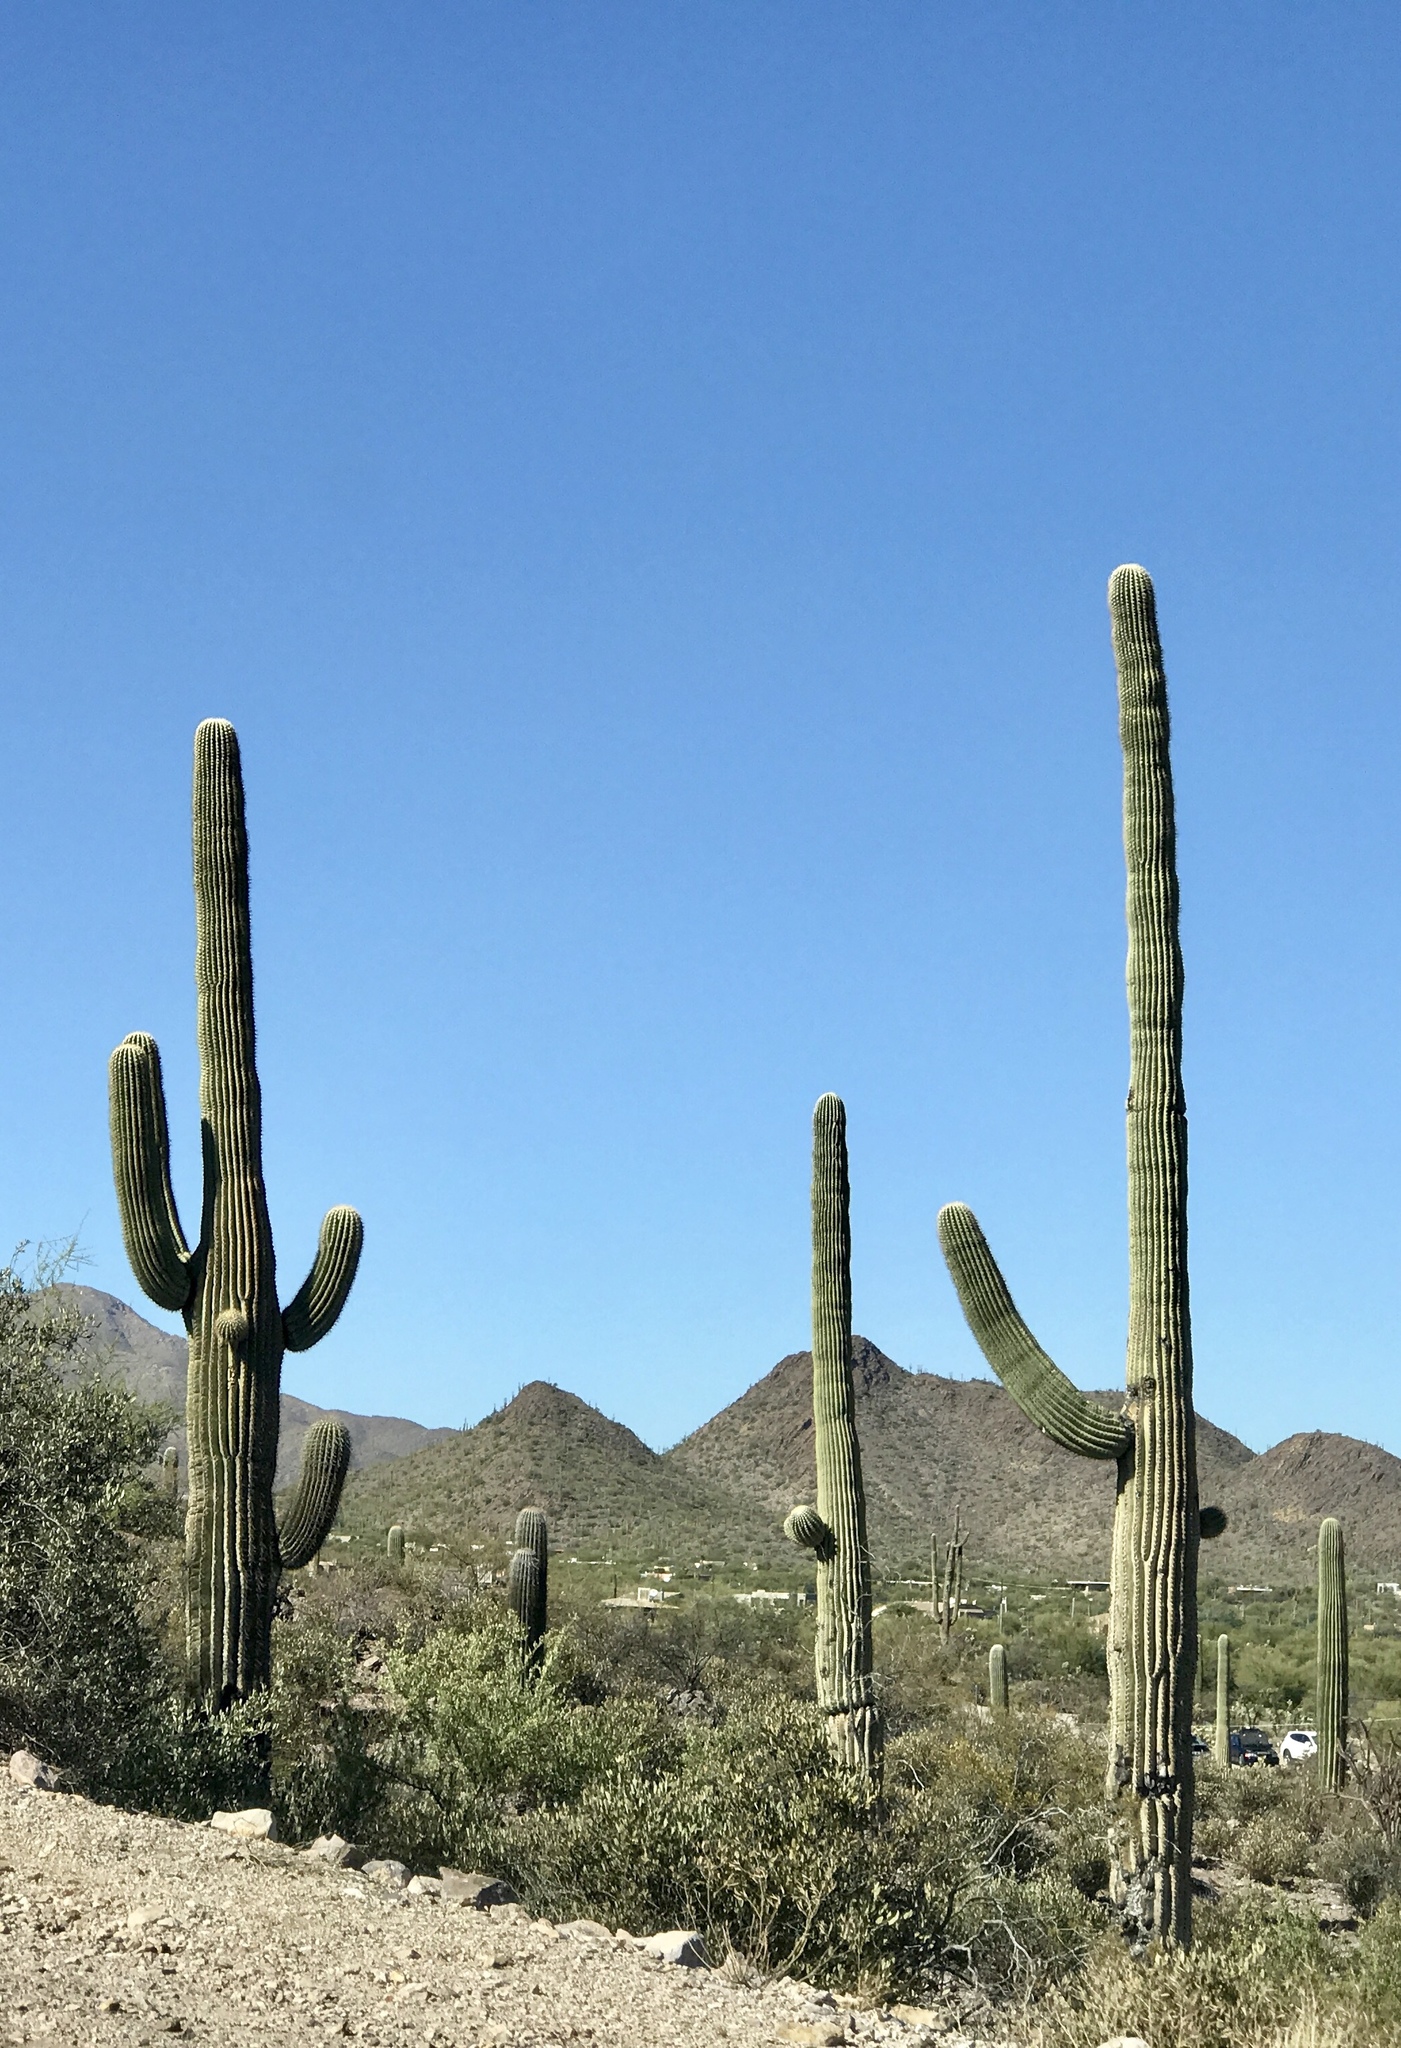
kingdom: Plantae
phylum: Tracheophyta
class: Magnoliopsida
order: Caryophyllales
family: Cactaceae
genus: Carnegiea
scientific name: Carnegiea gigantea
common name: Saguaro
